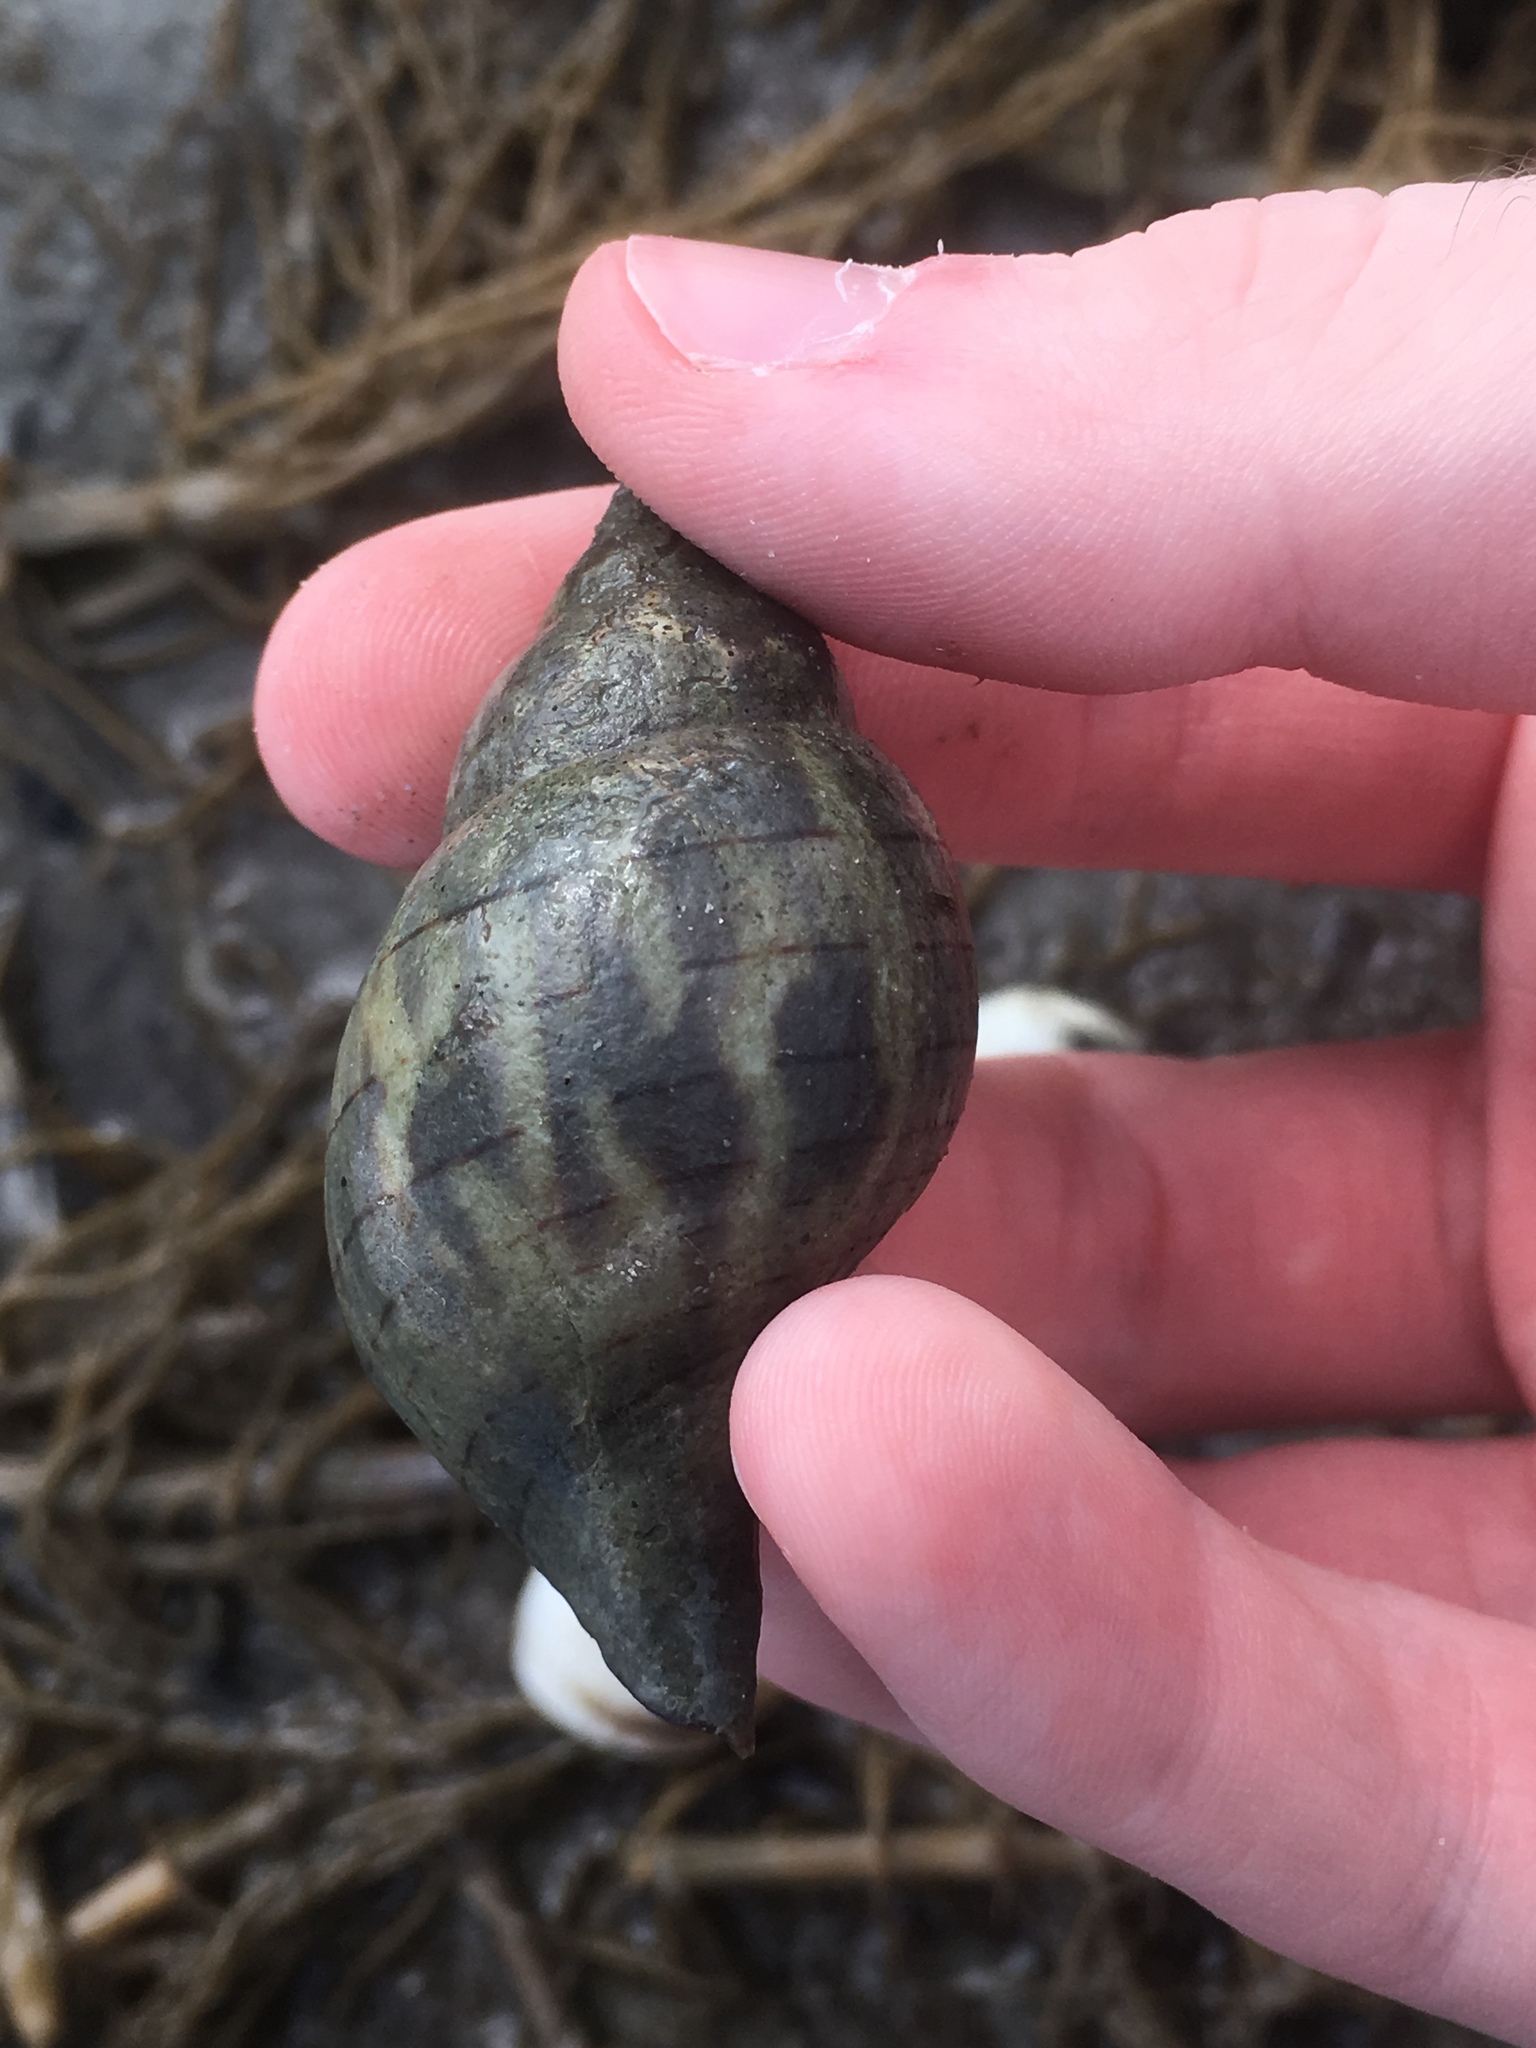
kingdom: Animalia
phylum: Mollusca
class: Gastropoda
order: Neogastropoda
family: Fasciolariidae
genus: Cinctura
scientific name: Cinctura hunteria
